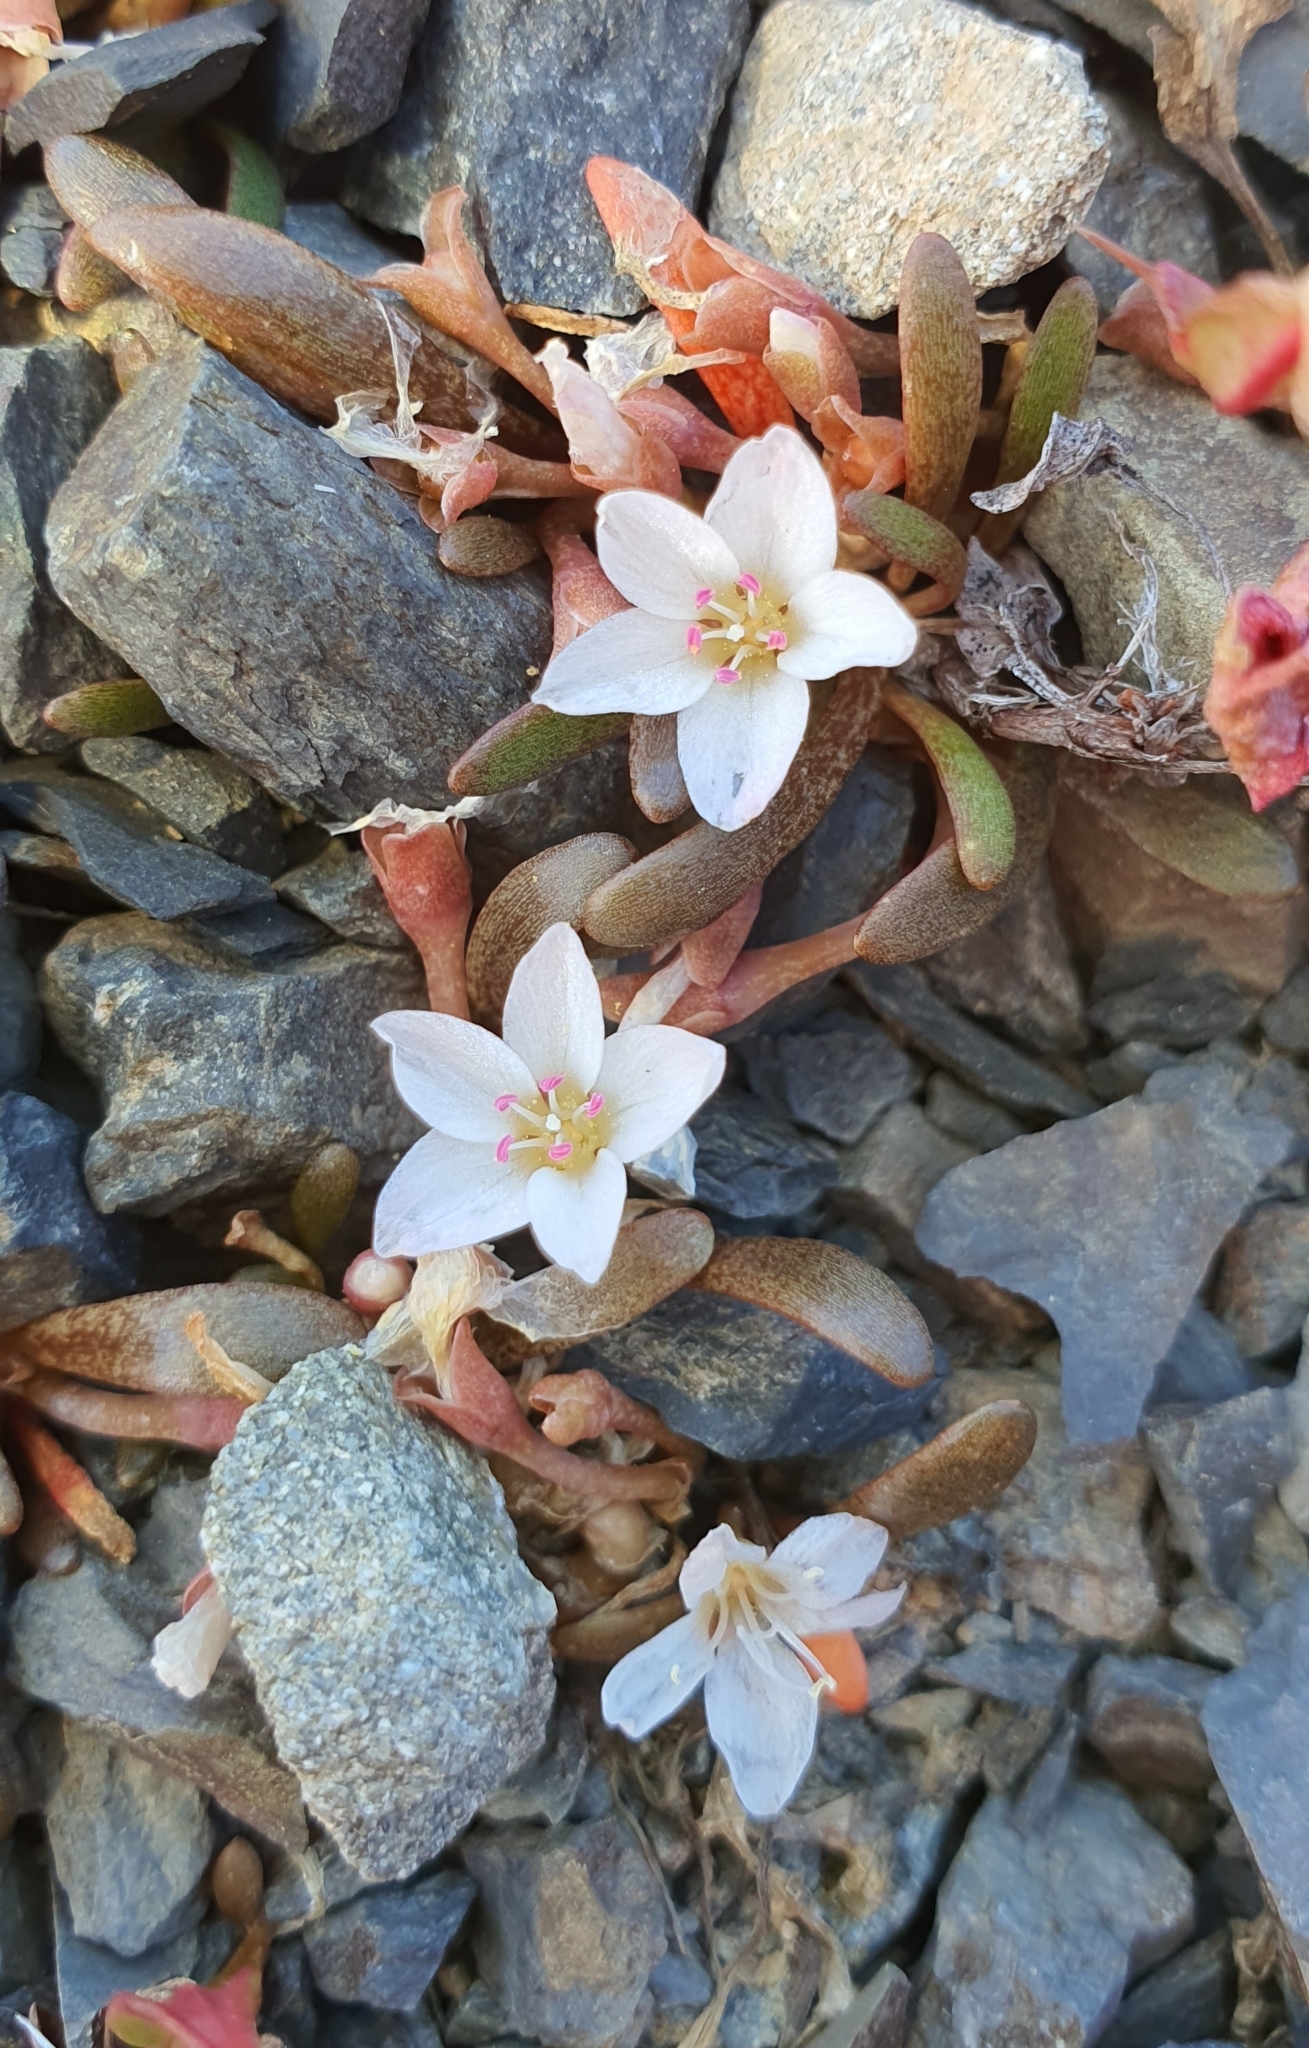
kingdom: Plantae
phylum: Tracheophyta
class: Magnoliopsida
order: Caryophyllales
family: Montiaceae
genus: Montia
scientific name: Montia erythrophylla
